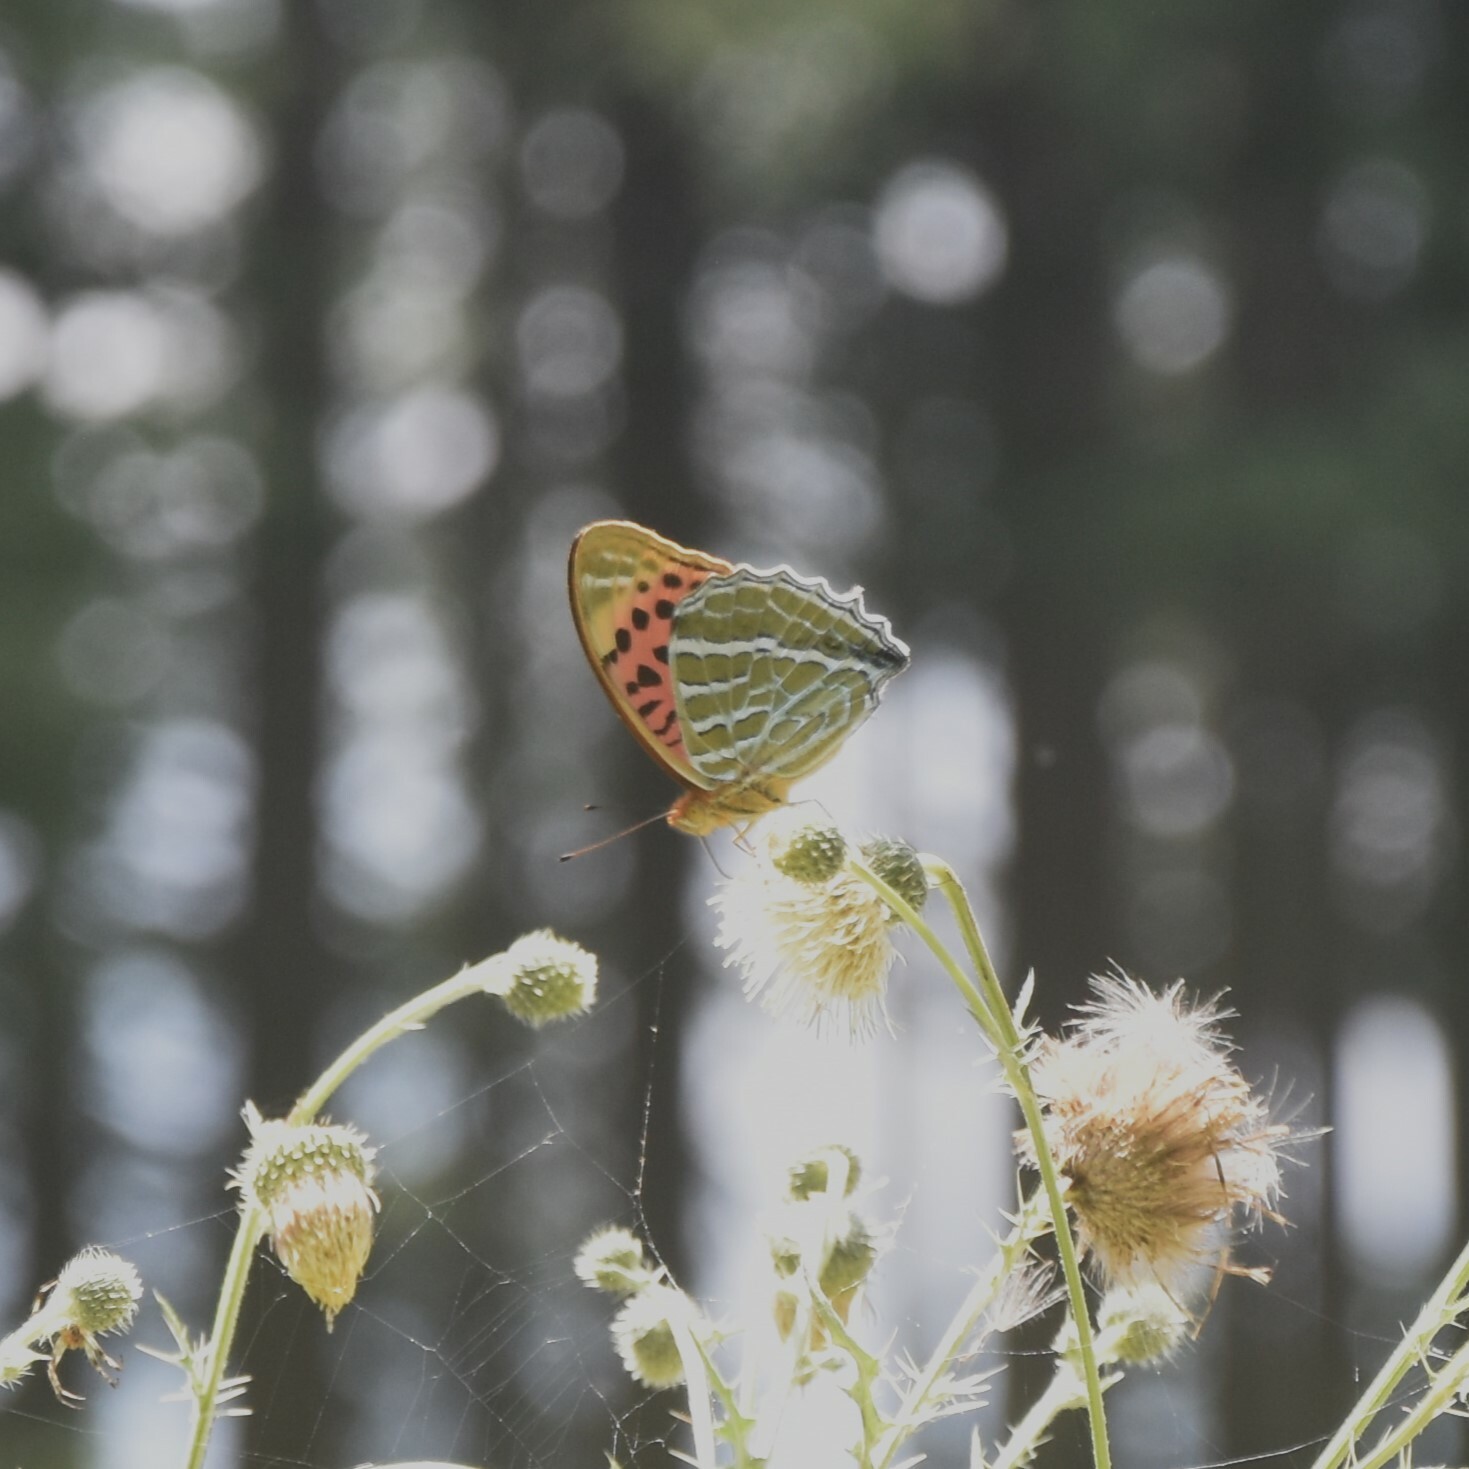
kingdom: Animalia
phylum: Arthropoda
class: Insecta
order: Lepidoptera
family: Nymphalidae
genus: Childrena
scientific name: Childrena childreni
